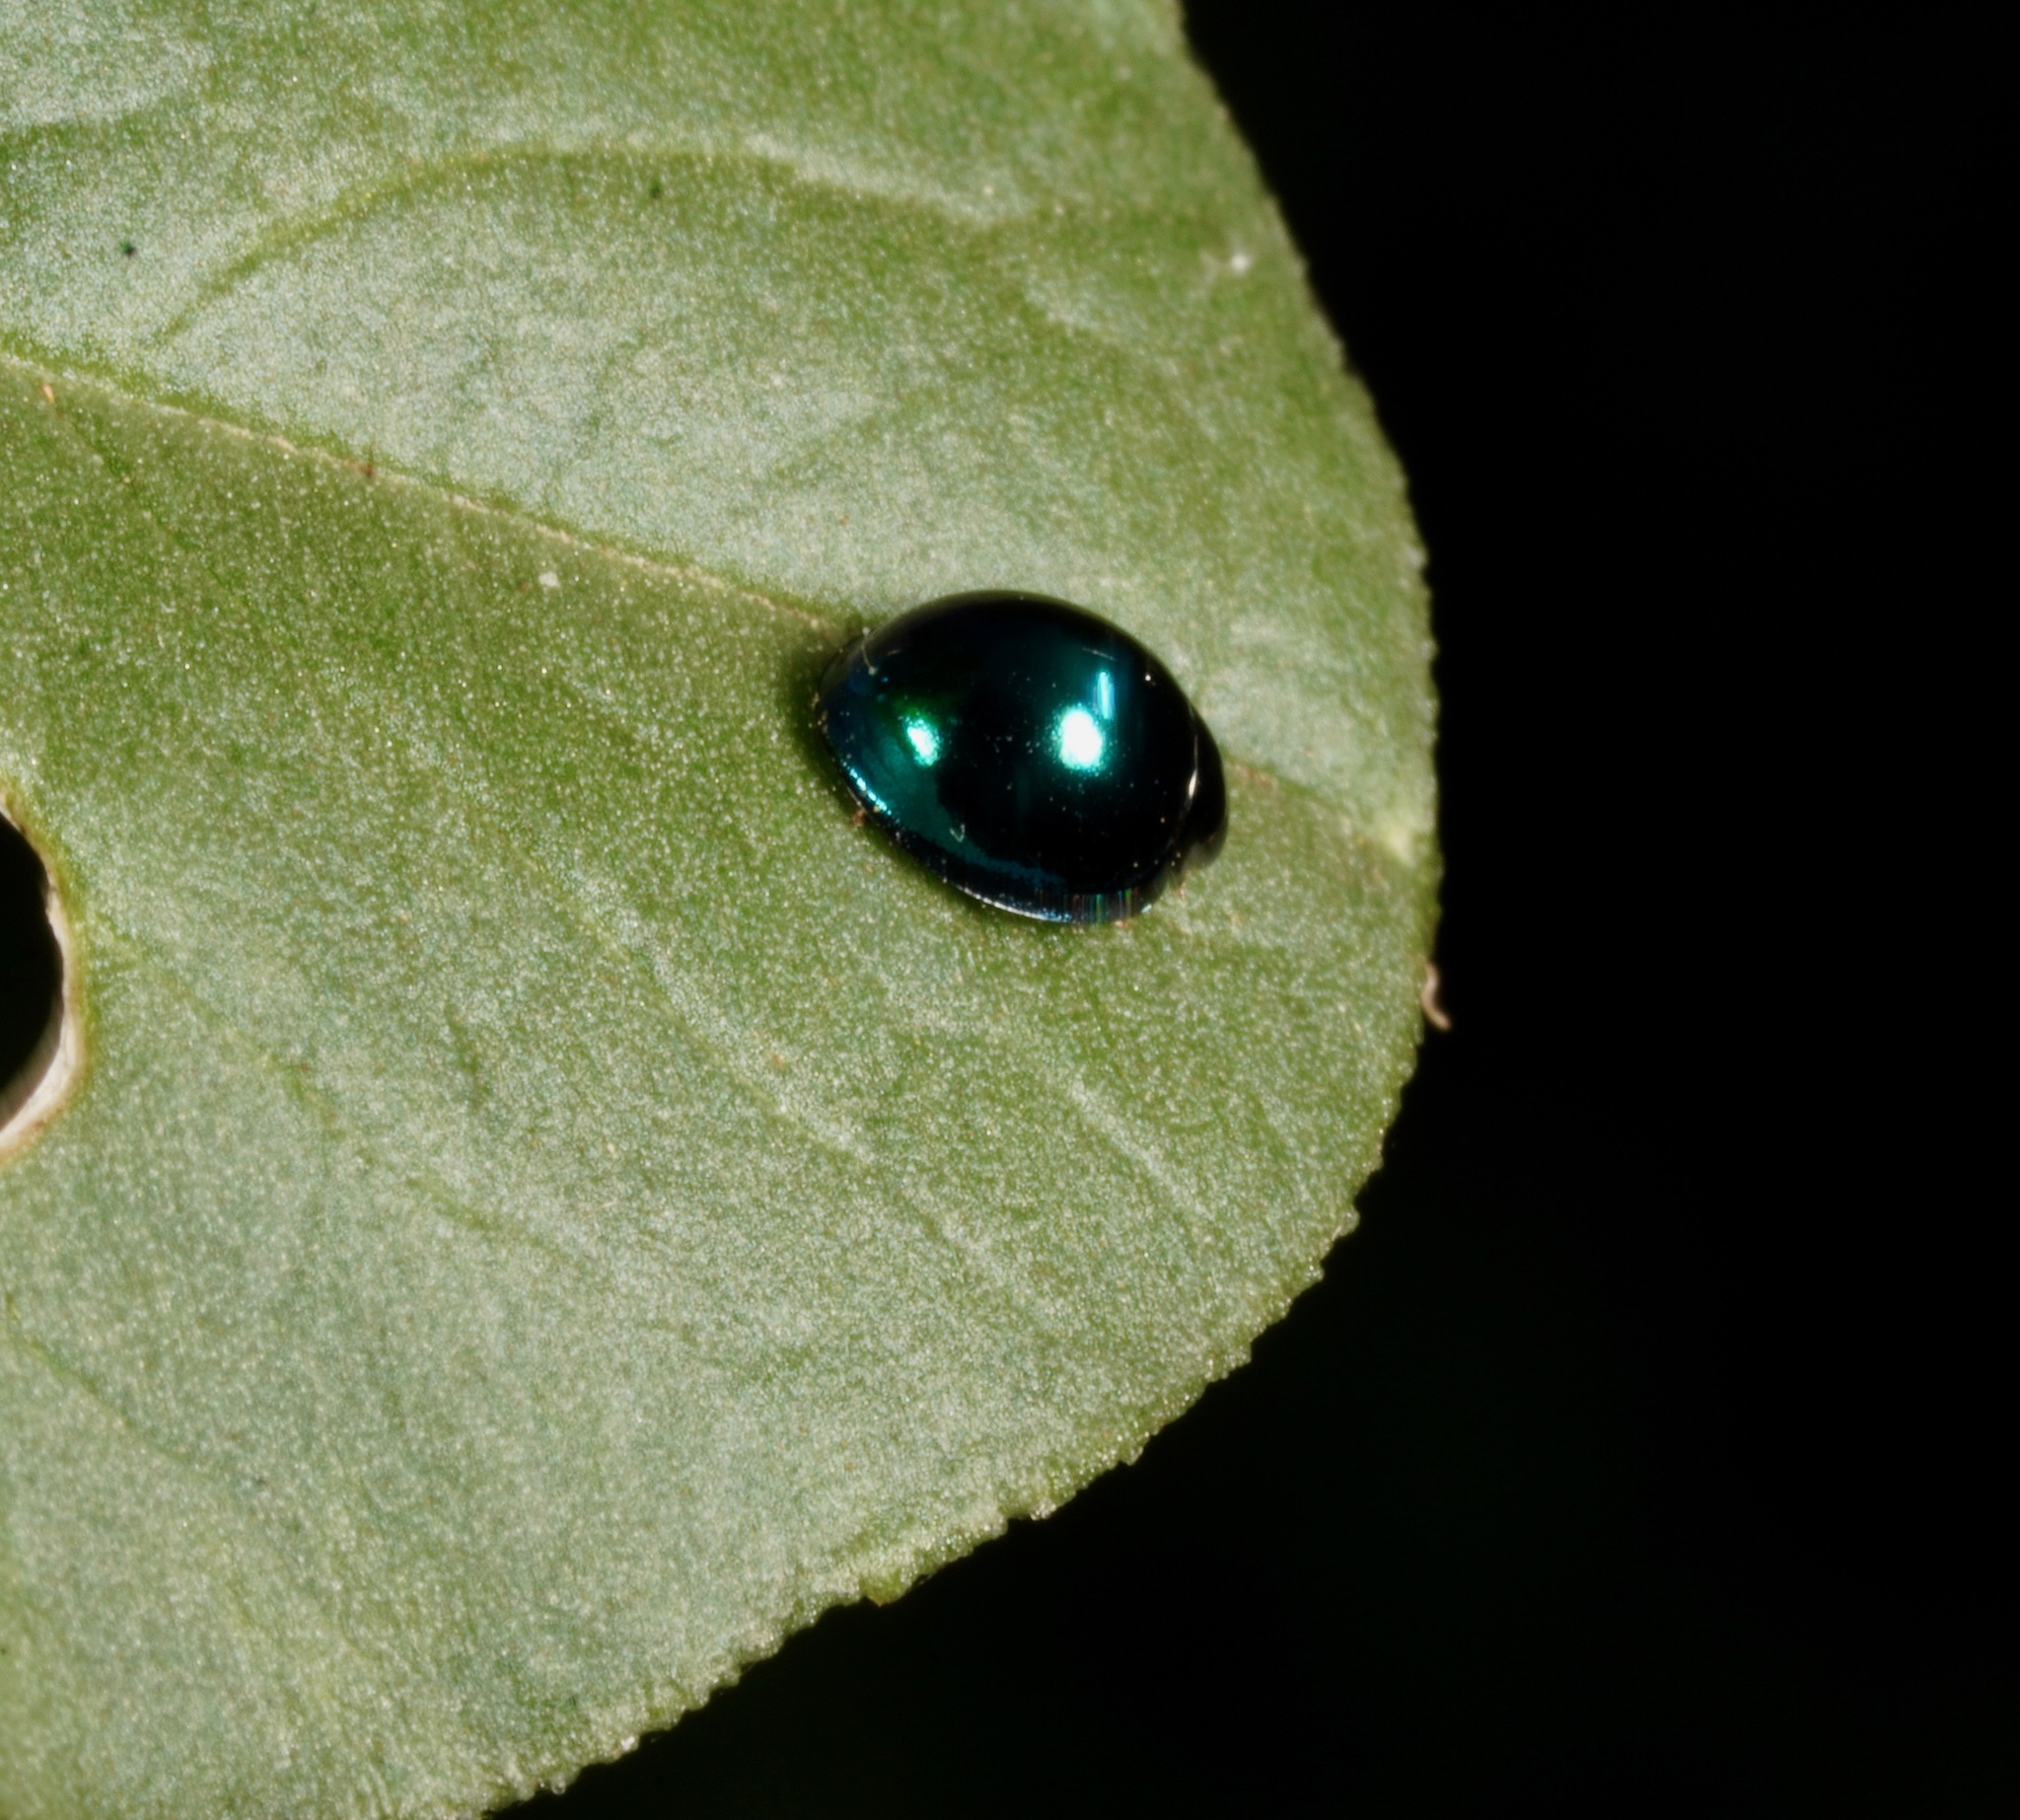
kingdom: Animalia
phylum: Arthropoda
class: Insecta
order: Coleoptera
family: Coccinellidae
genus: Halmus
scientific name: Halmus chalybeus
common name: Steel blue ladybird beetle
